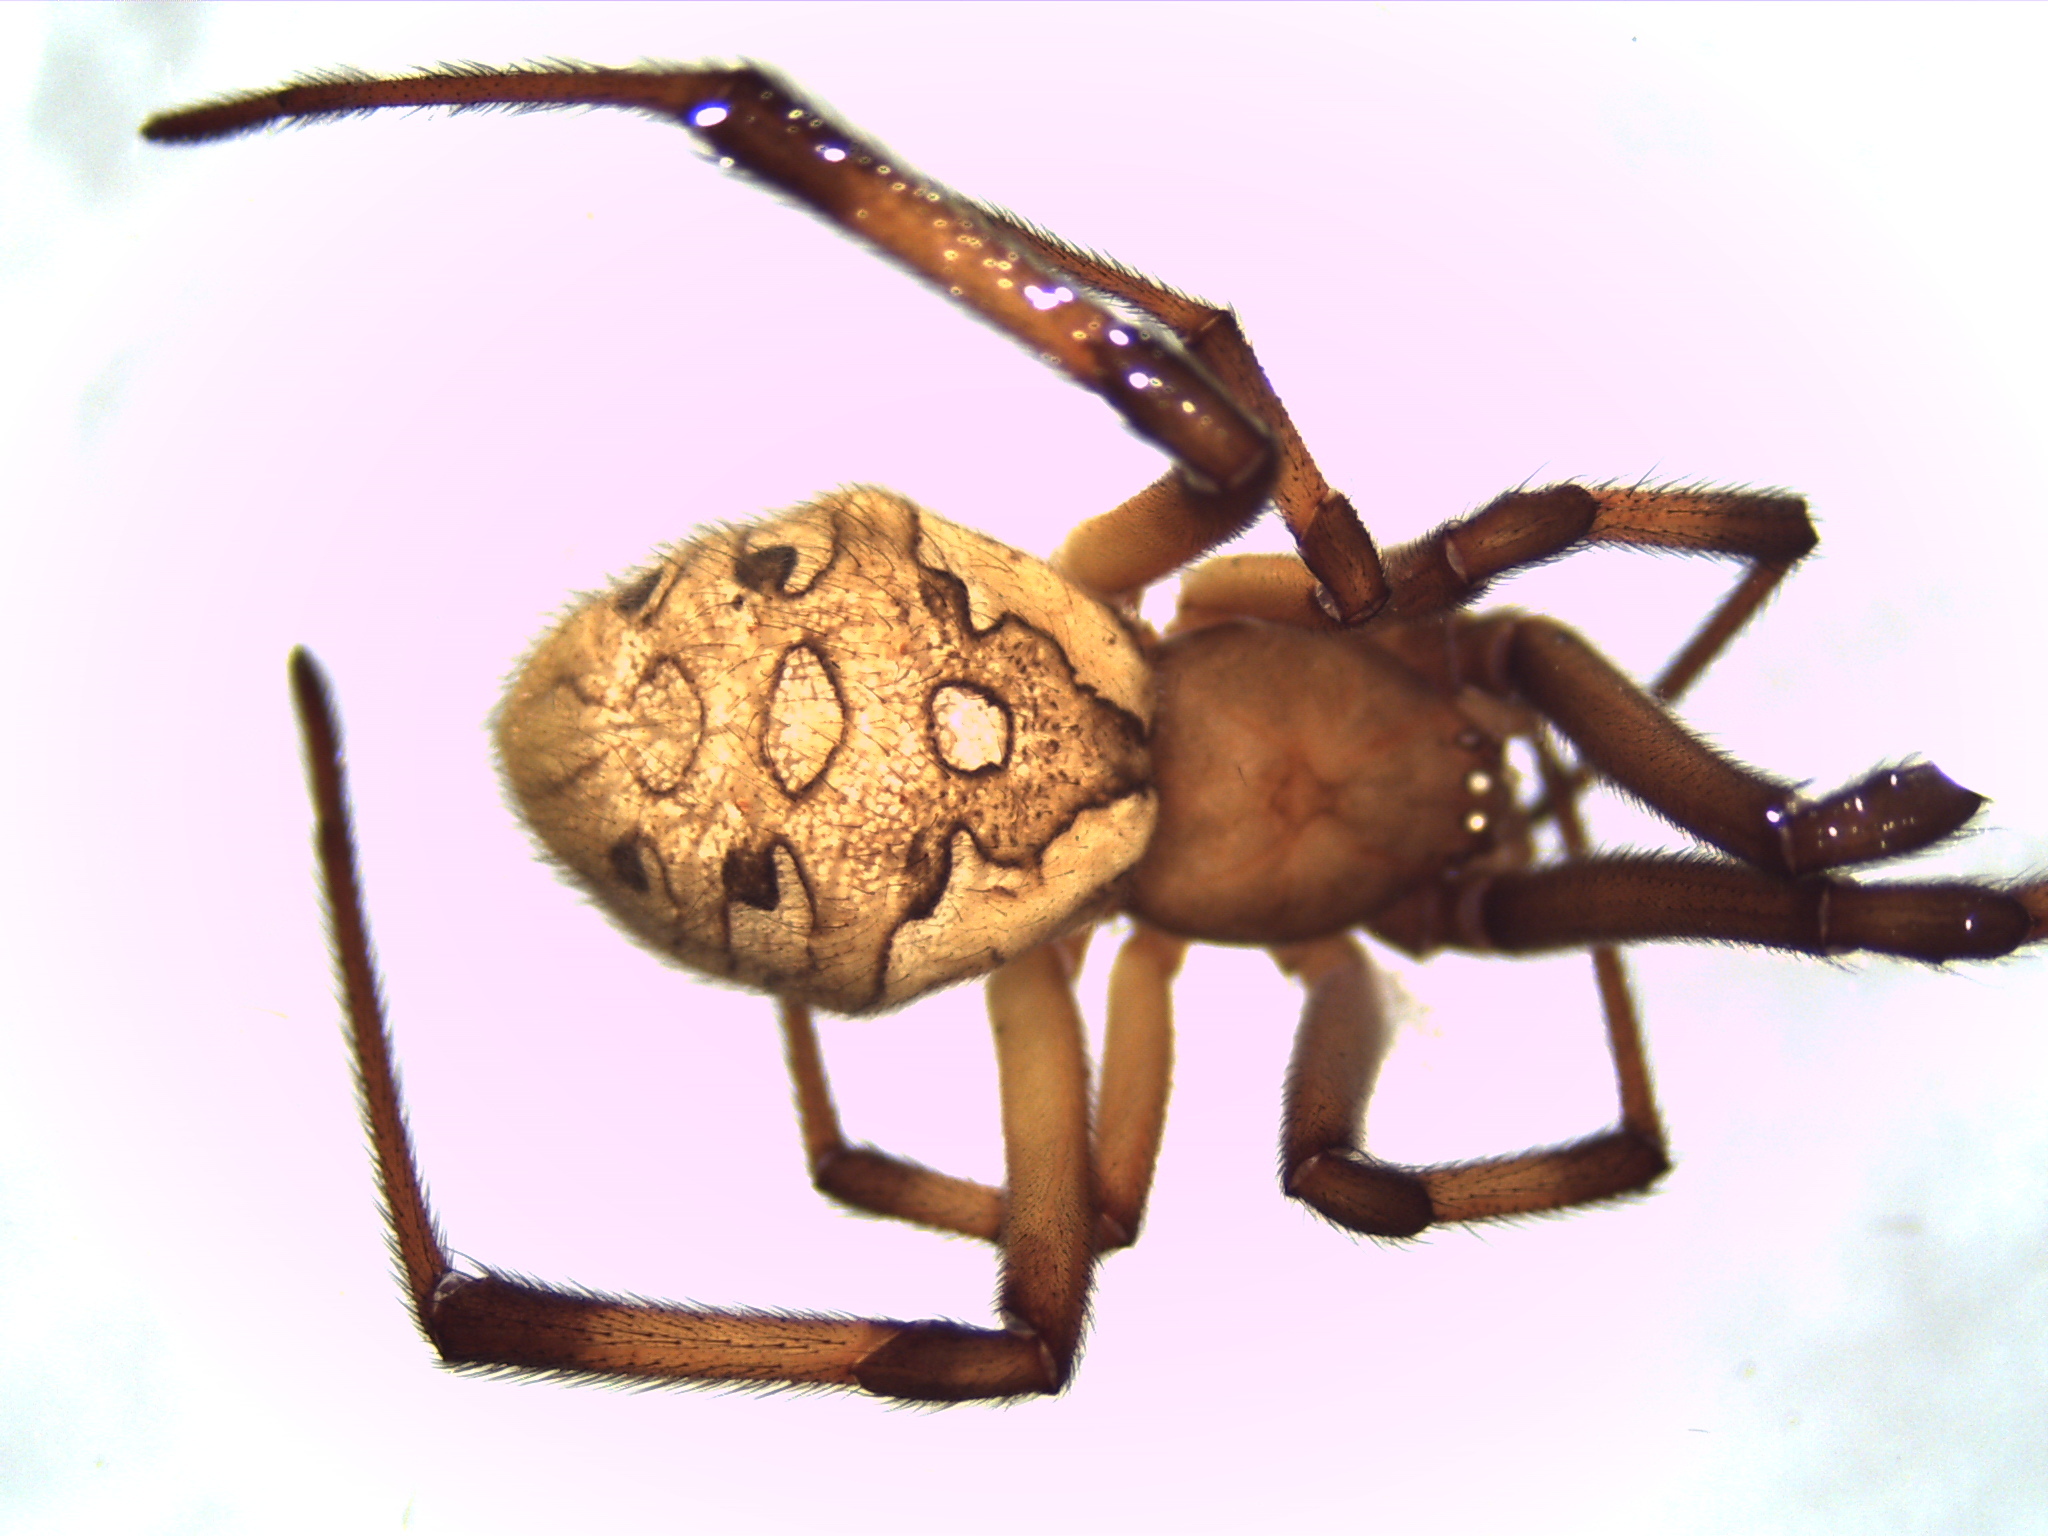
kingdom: Animalia
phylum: Arthropoda
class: Arachnida
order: Araneae
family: Theridiidae
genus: Latrodectus
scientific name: Latrodectus geometricus
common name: Brown widow spider
